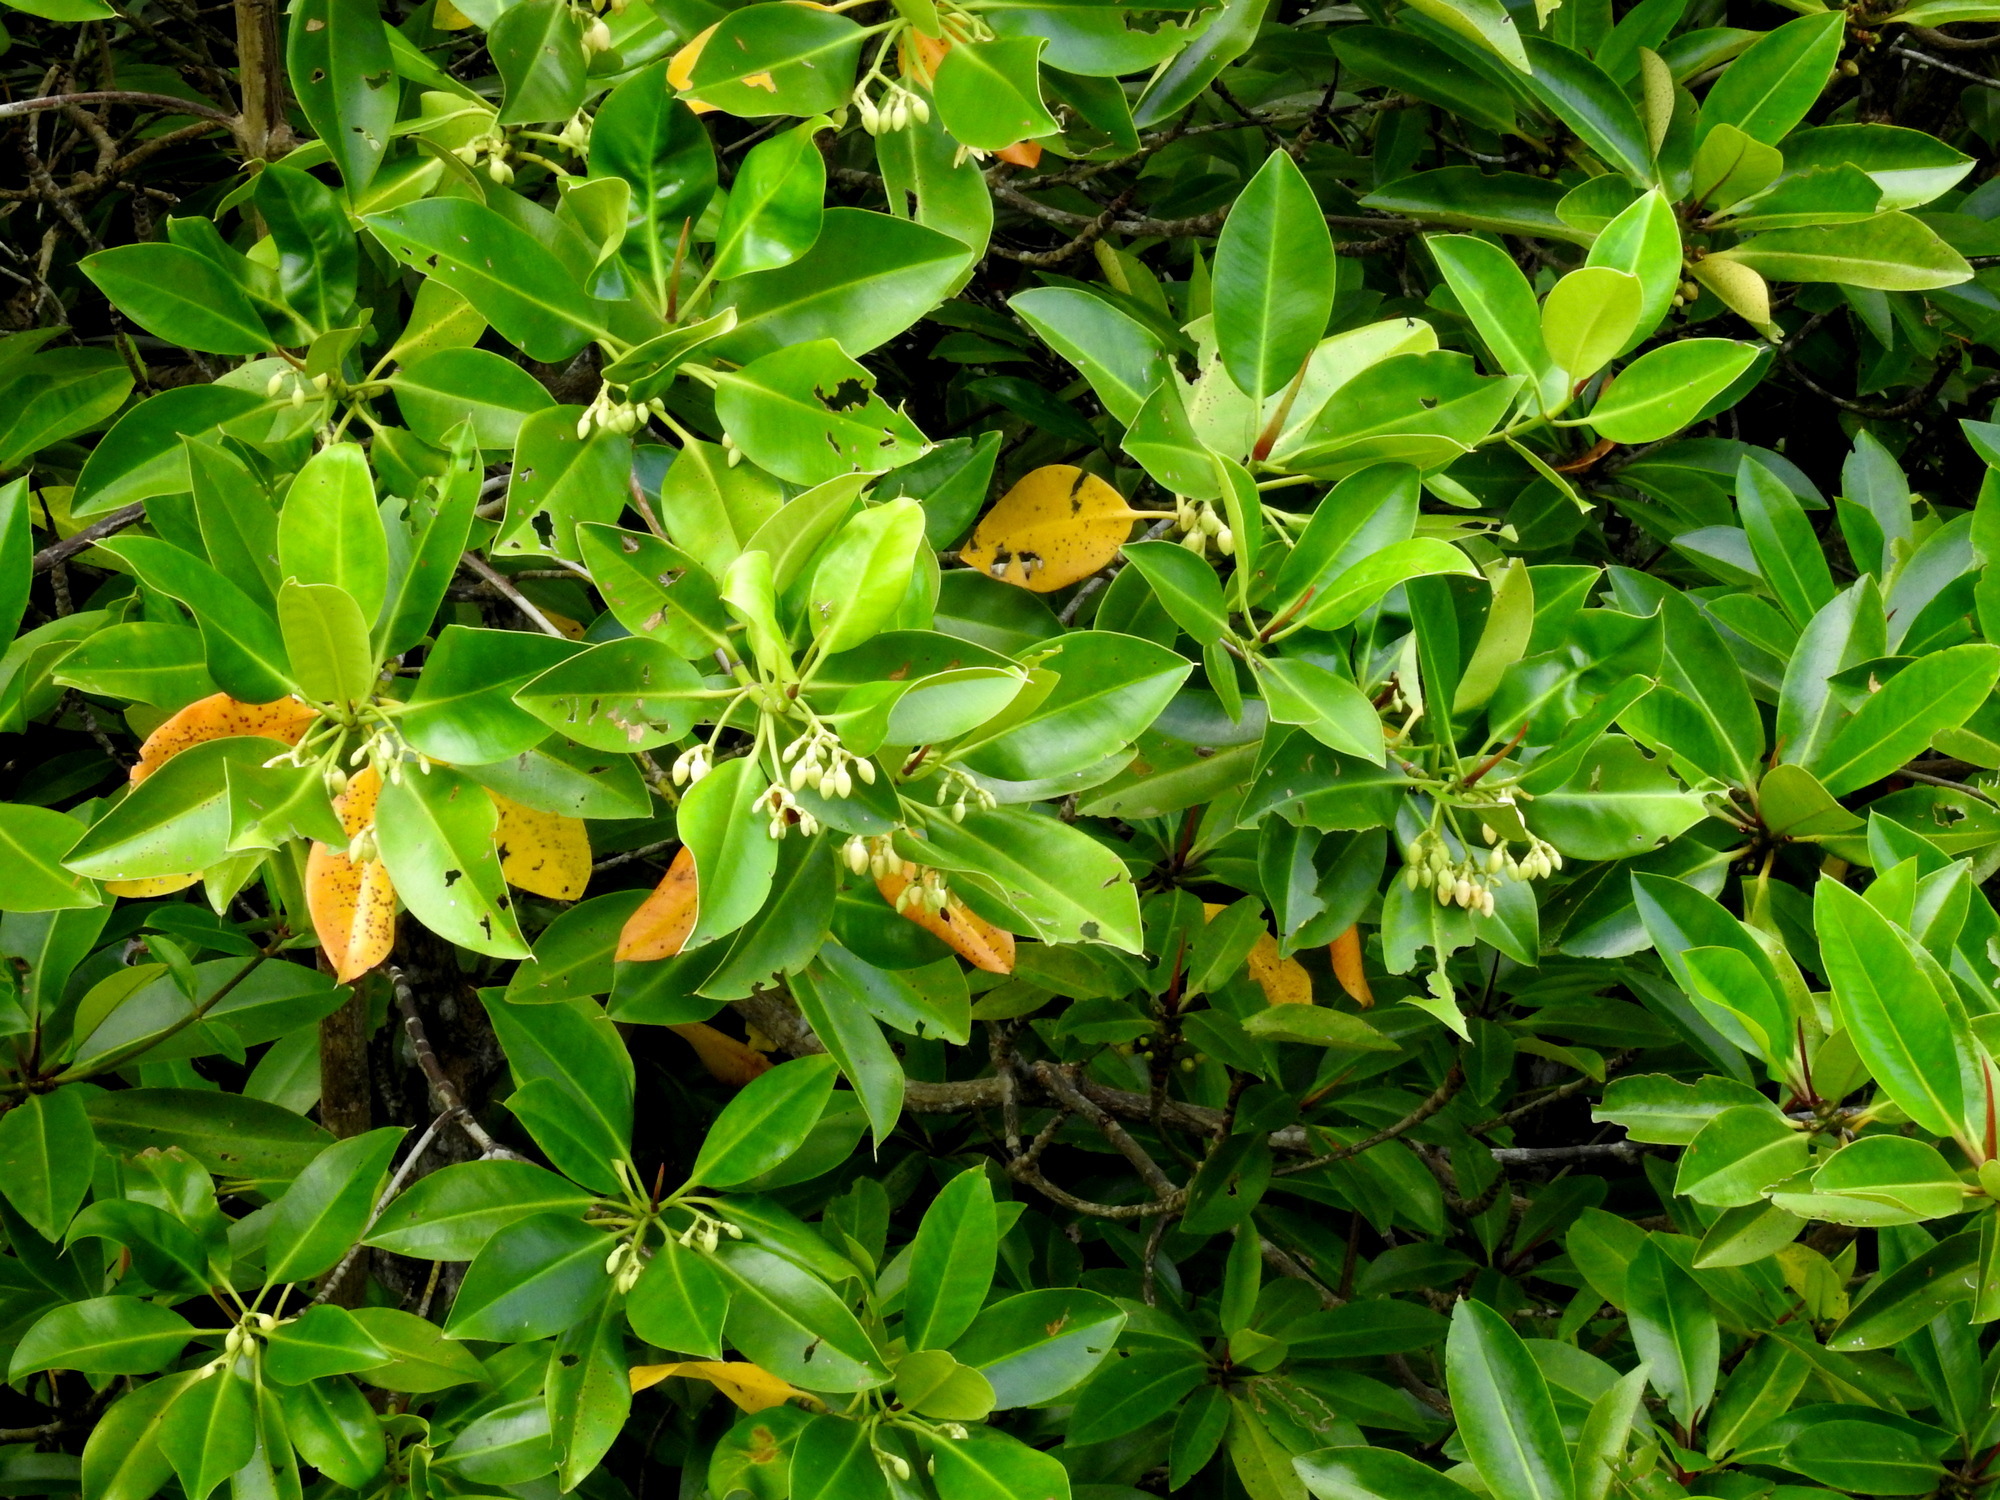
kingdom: Plantae
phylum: Tracheophyta
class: Magnoliopsida
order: Malpighiales
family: Rhizophoraceae
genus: Rhizophora
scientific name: Rhizophora stylosa
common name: Red mangrove
